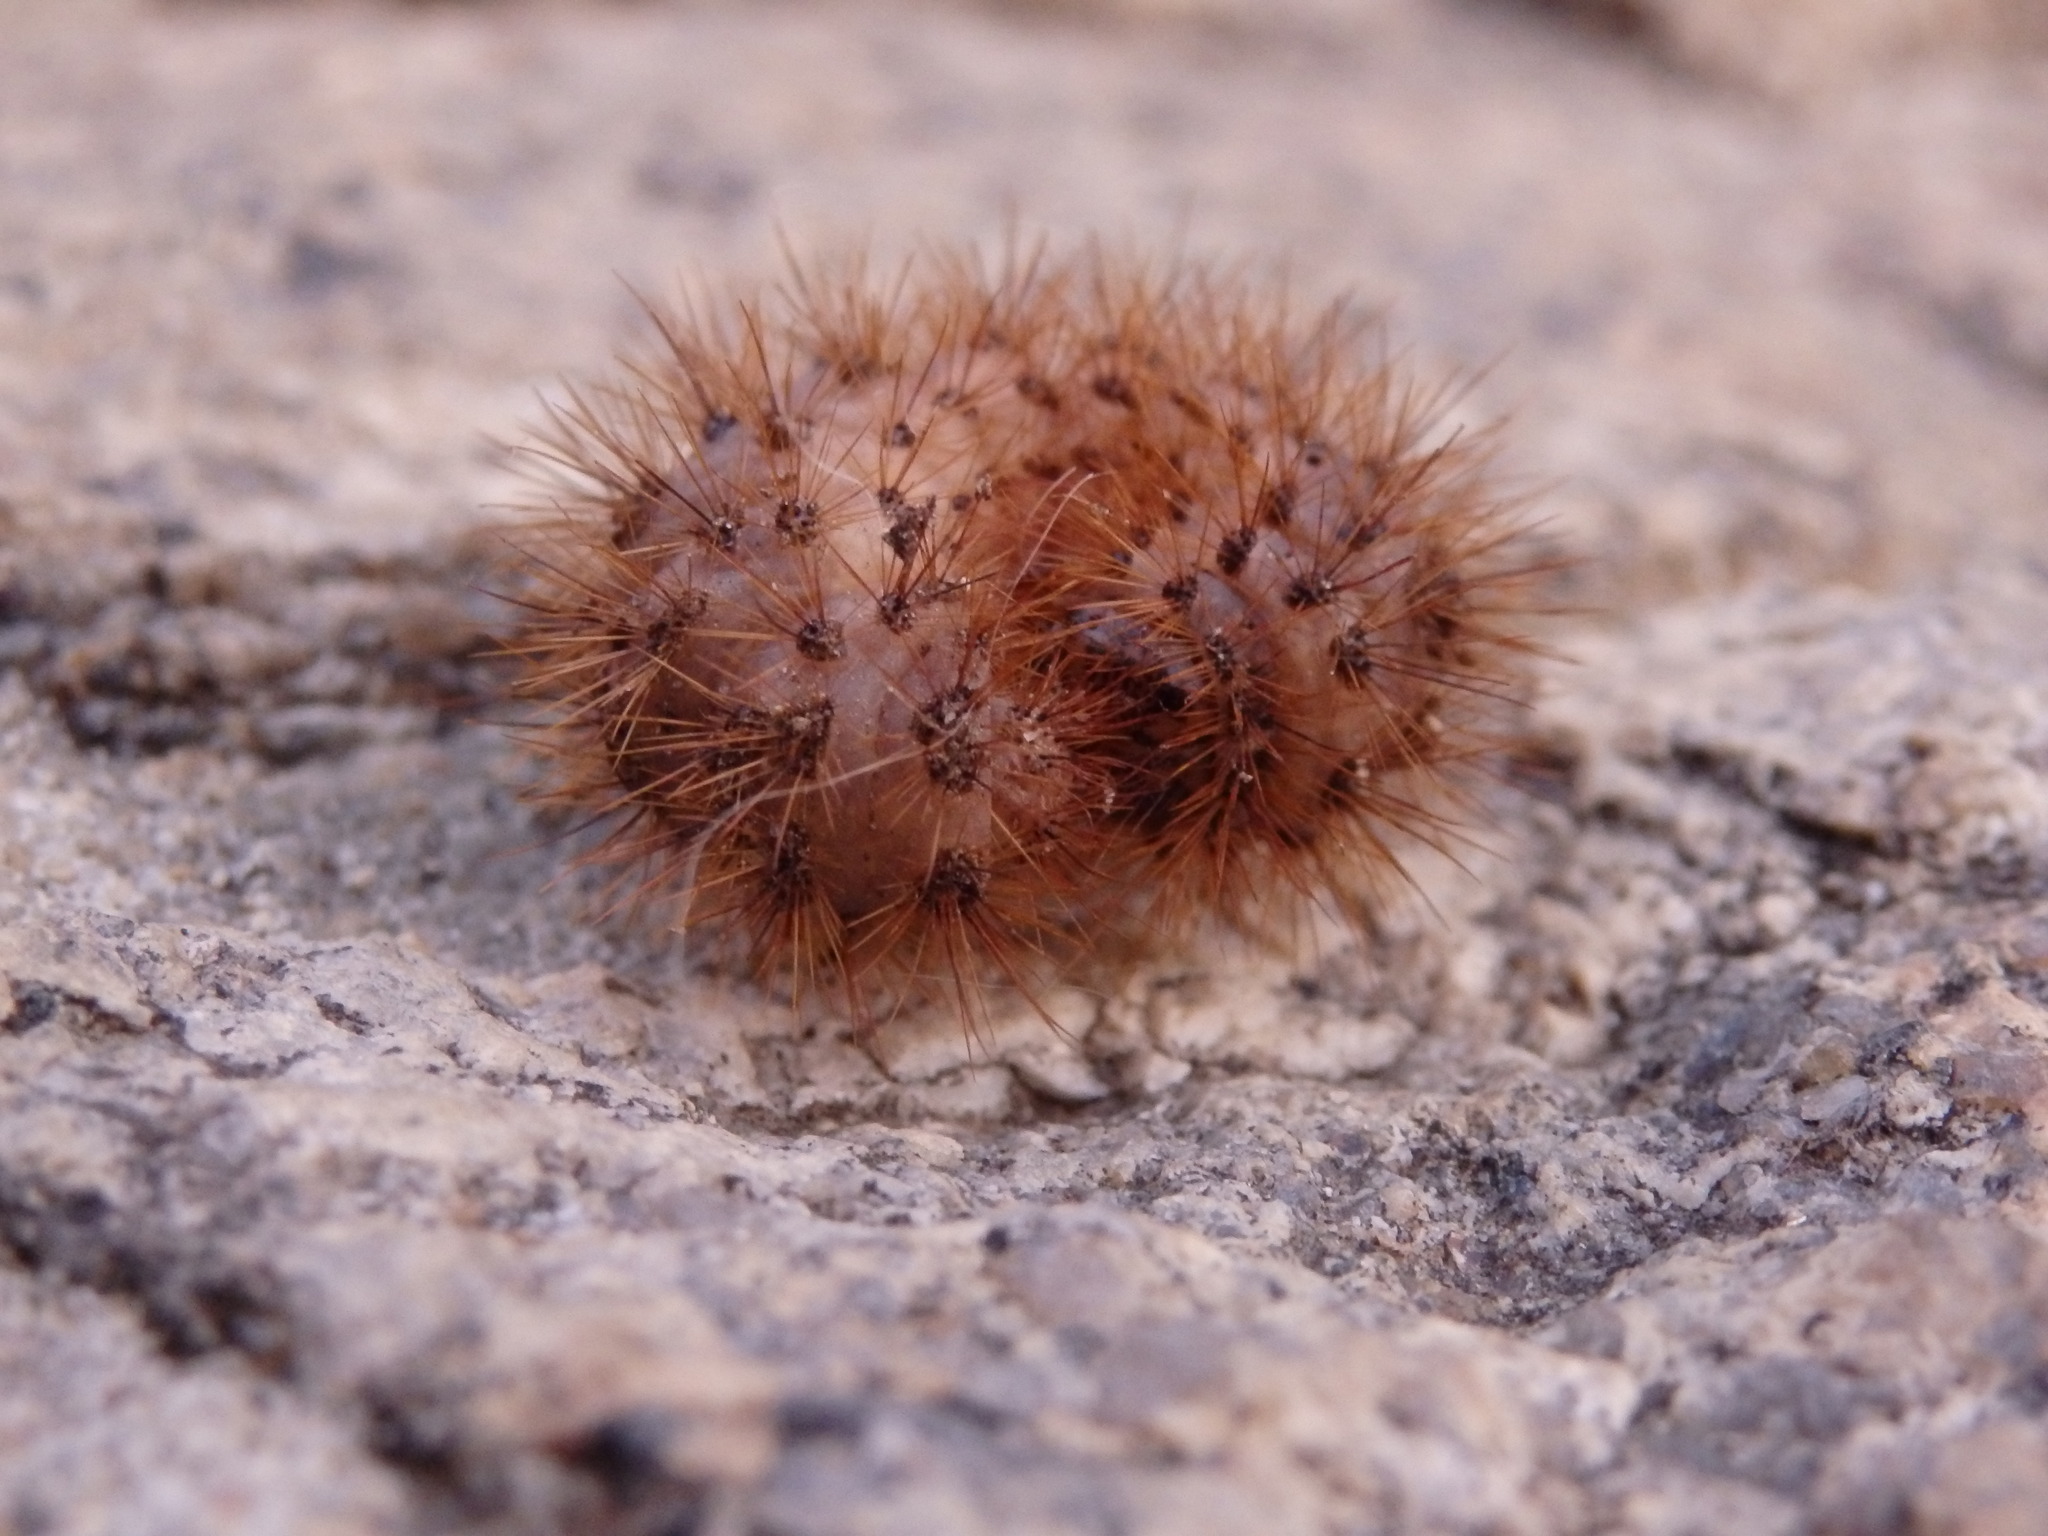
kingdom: Animalia
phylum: Arthropoda
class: Insecta
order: Lepidoptera
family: Erebidae
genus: Phragmatobia
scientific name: Phragmatobia fuliginosa
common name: Ruby tiger
